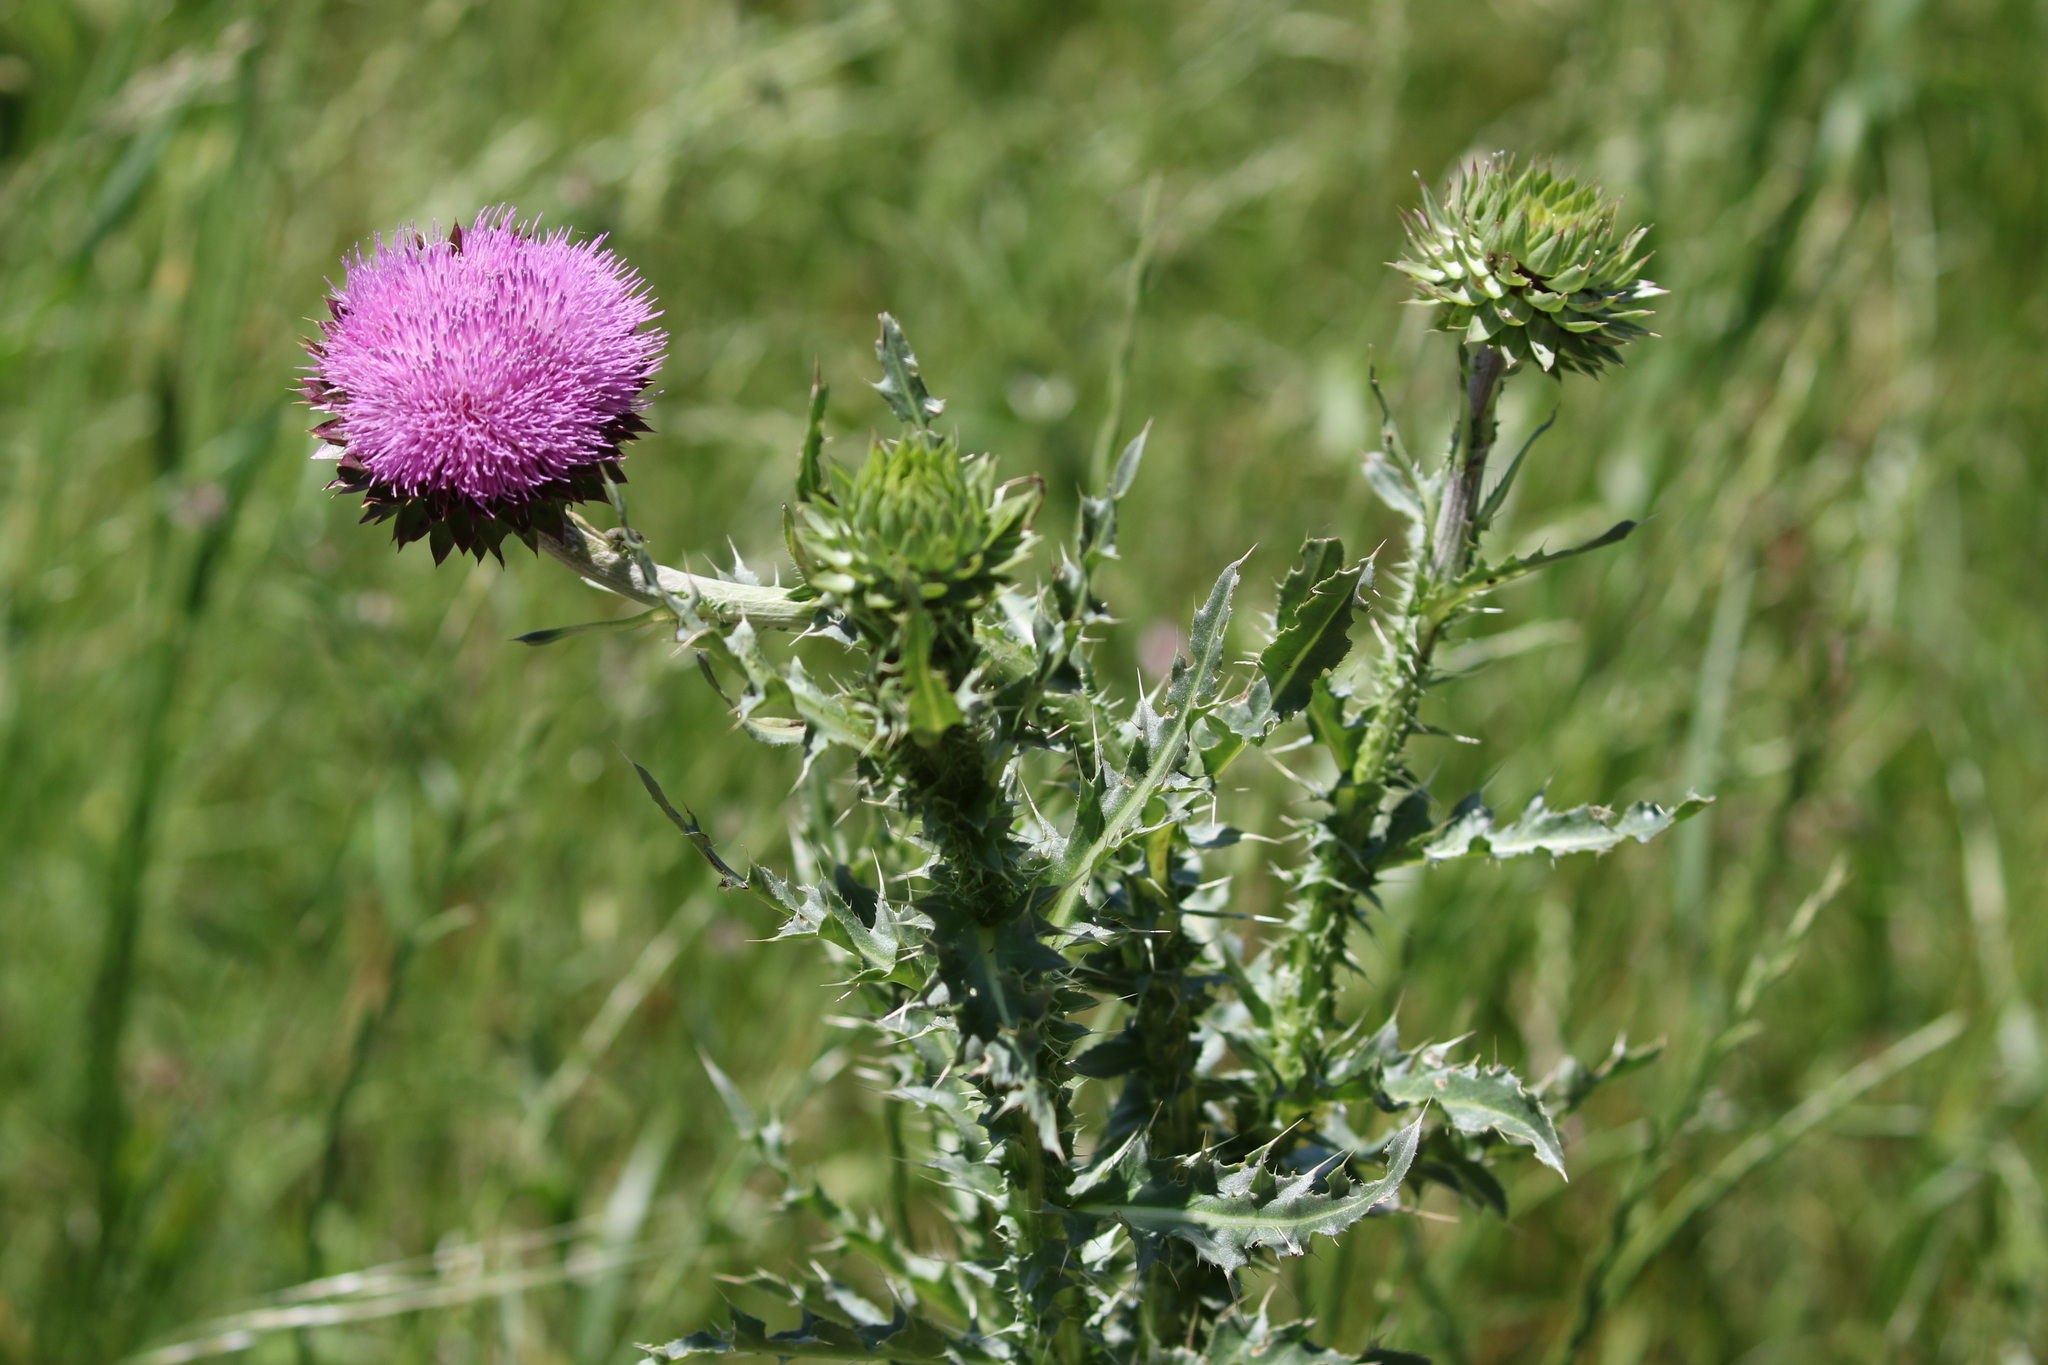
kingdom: Plantae
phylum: Tracheophyta
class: Magnoliopsida
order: Asterales
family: Asteraceae
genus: Carduus
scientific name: Carduus nutans
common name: Musk thistle
